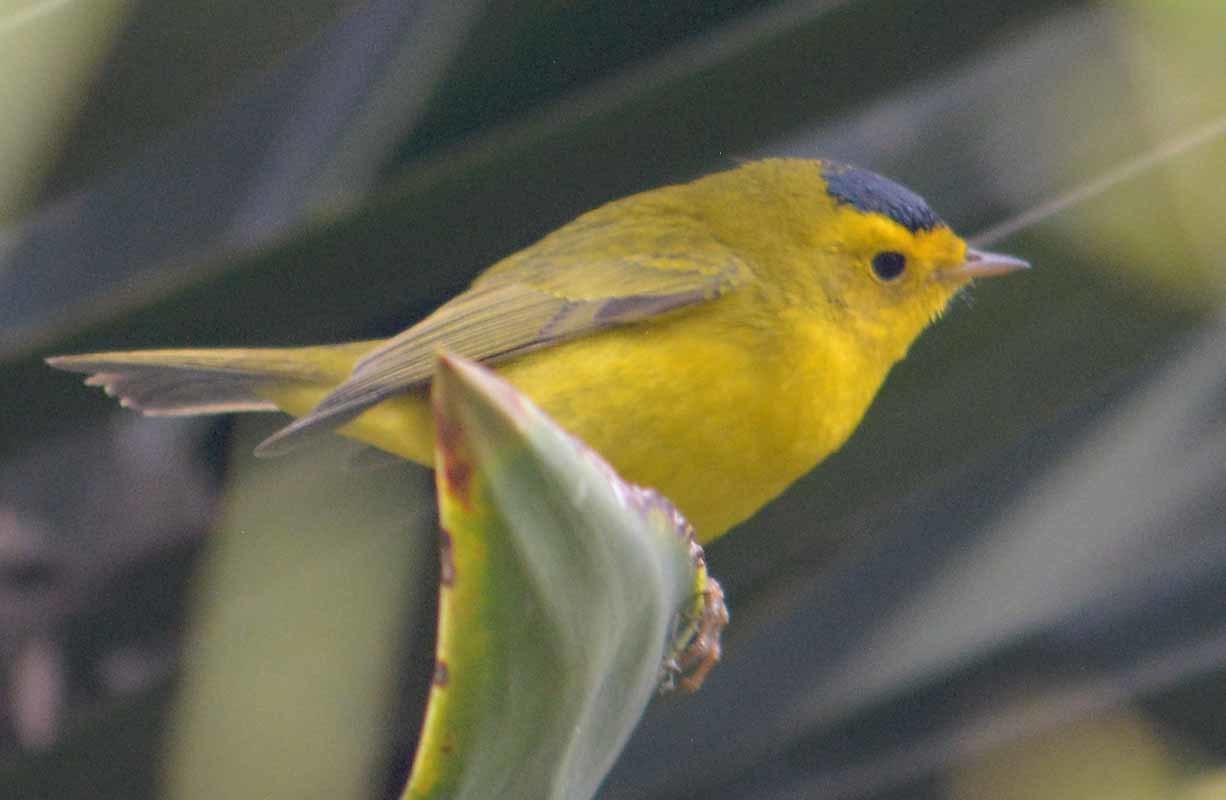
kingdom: Animalia
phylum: Chordata
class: Aves
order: Passeriformes
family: Parulidae
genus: Cardellina
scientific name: Cardellina pusilla
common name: Wilson's warbler
